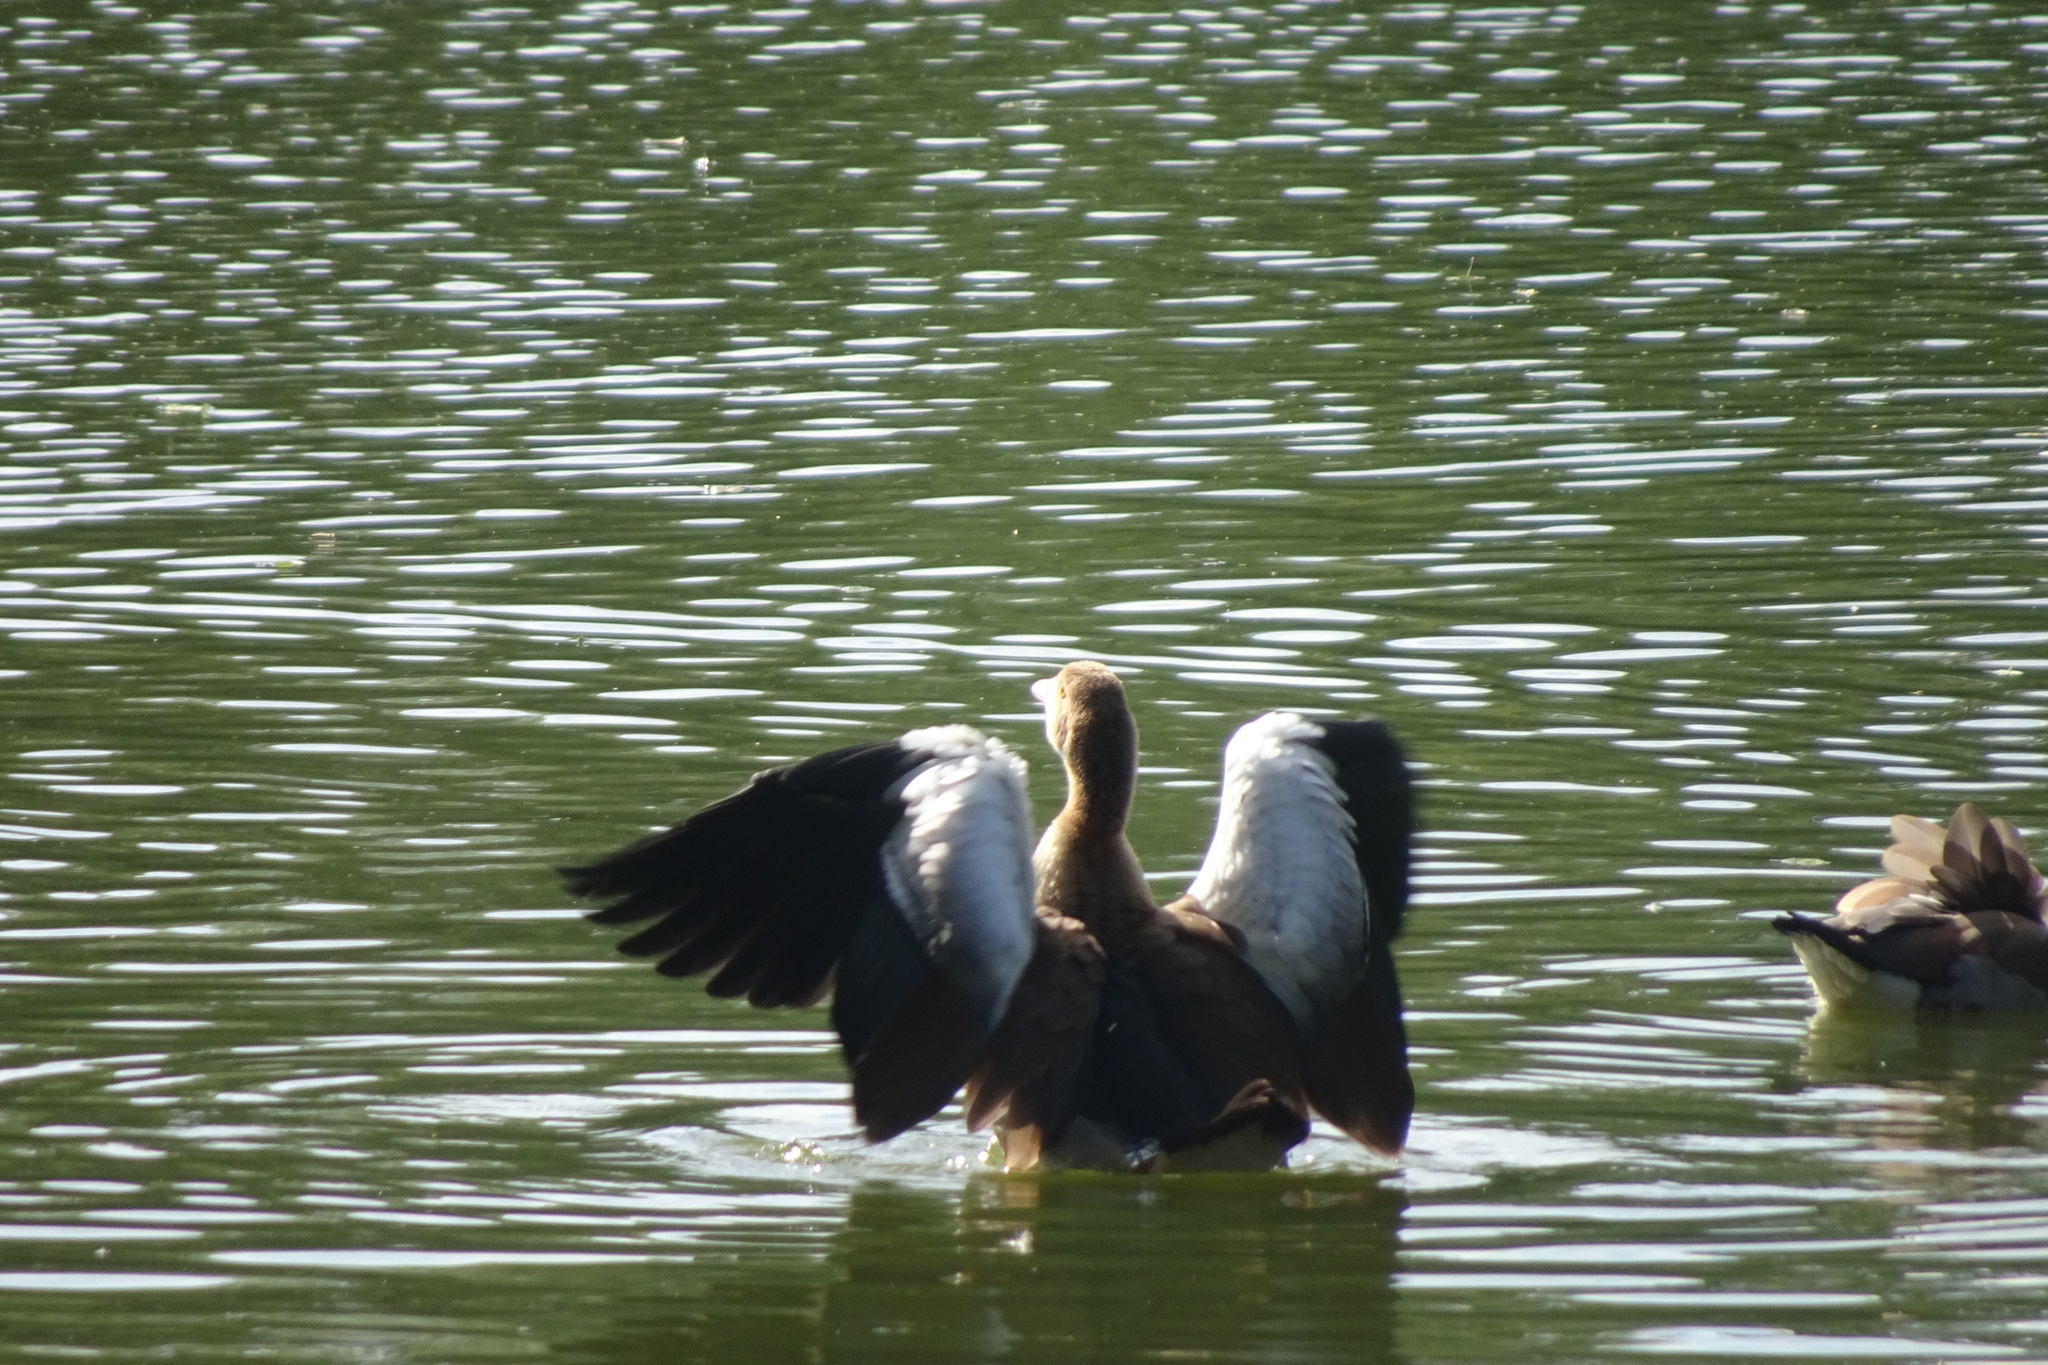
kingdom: Animalia
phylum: Chordata
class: Aves
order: Anseriformes
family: Anatidae
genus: Alopochen
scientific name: Alopochen aegyptiaca
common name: Egyptian goose
